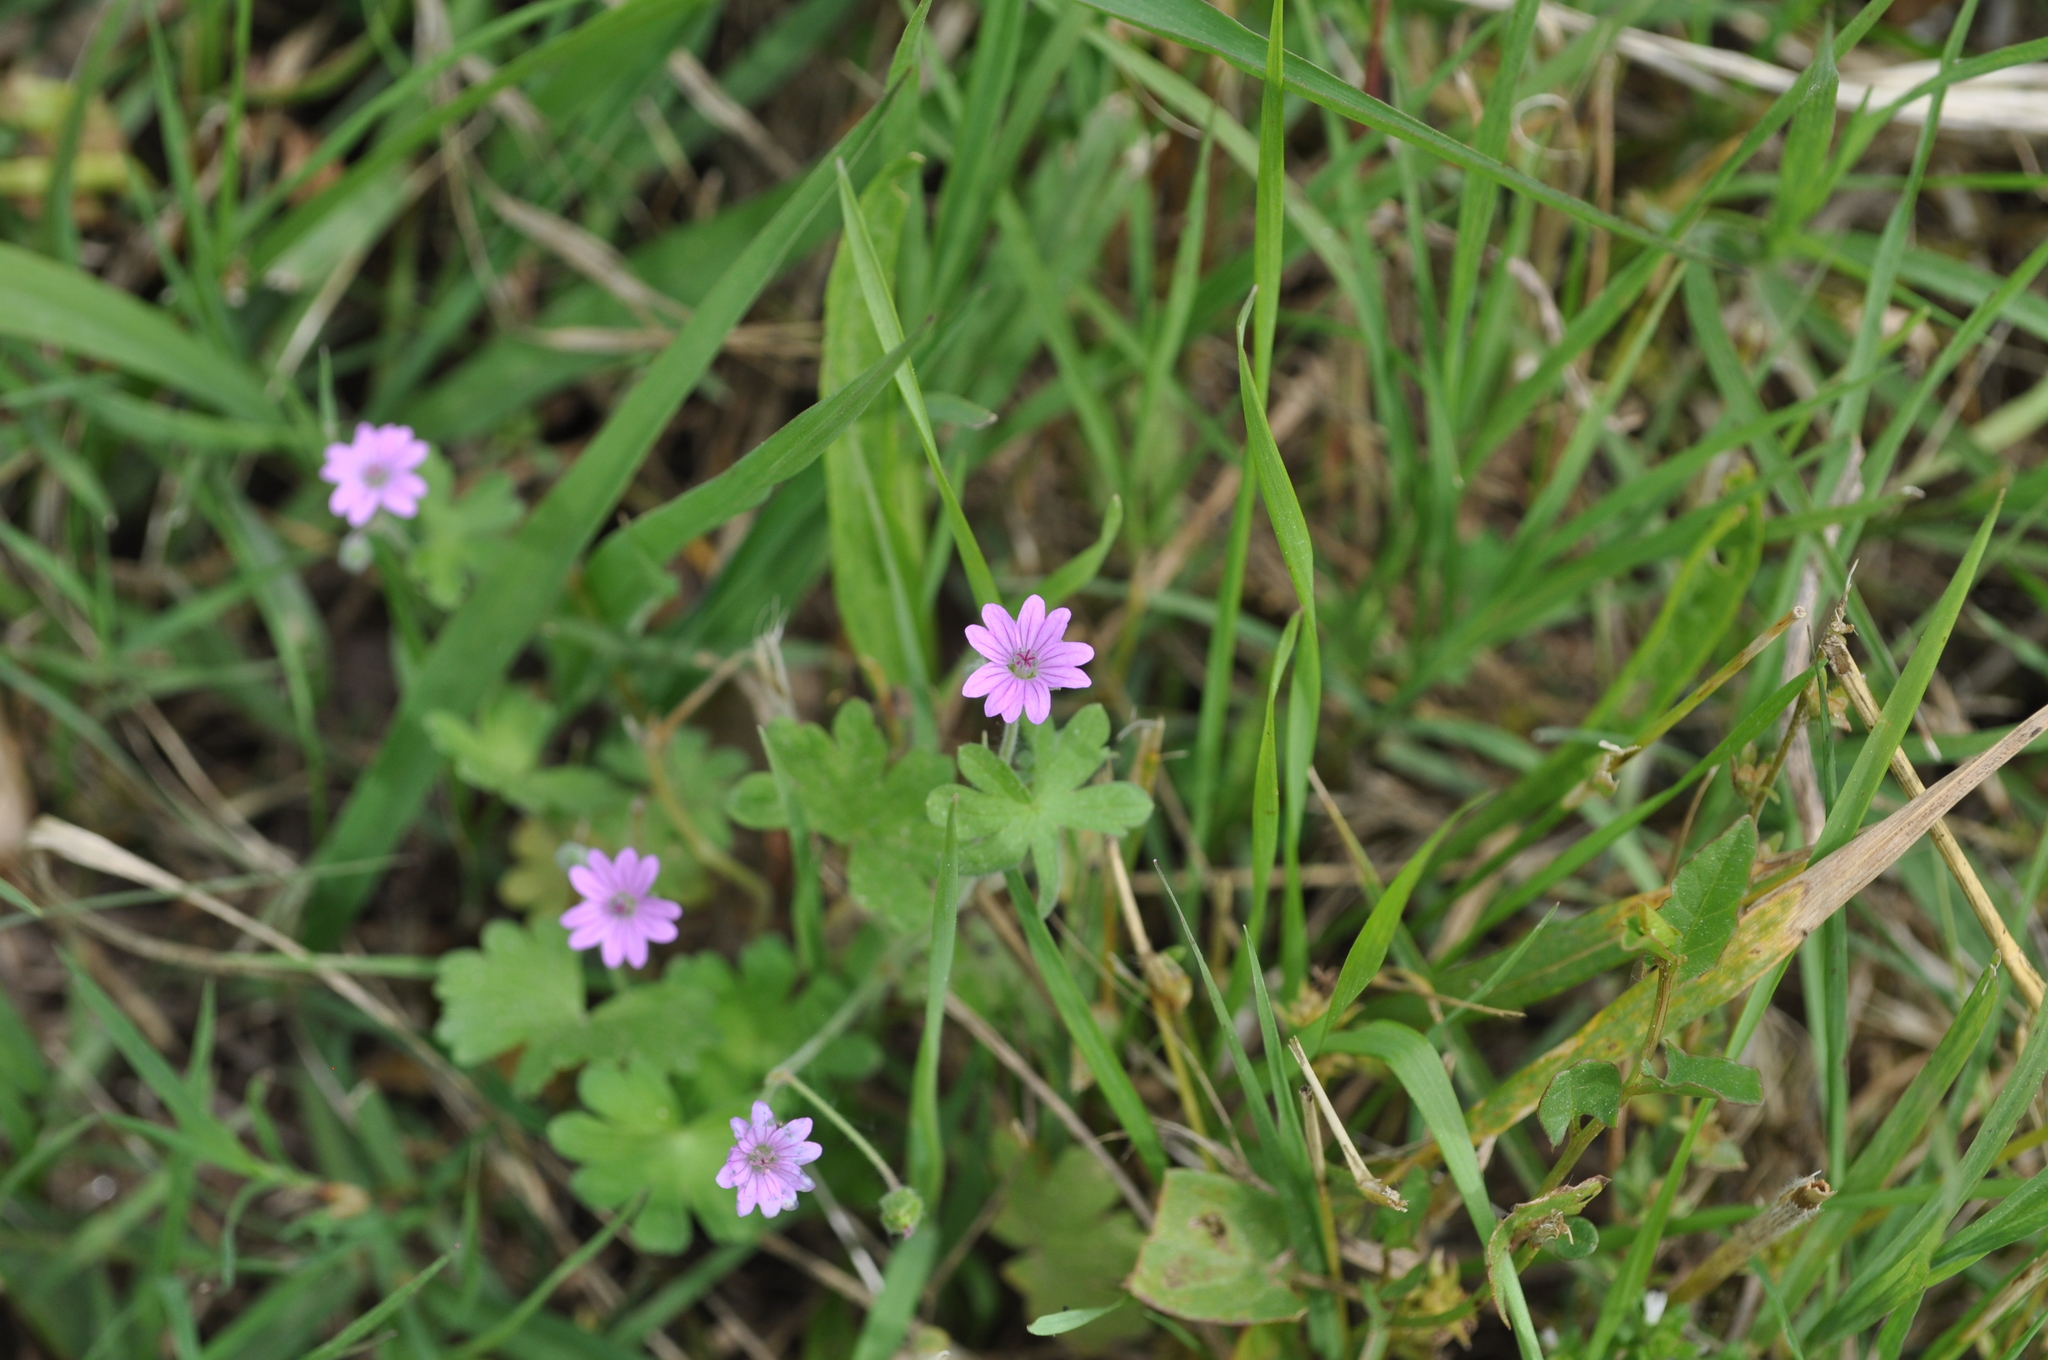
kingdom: Plantae
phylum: Tracheophyta
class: Magnoliopsida
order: Geraniales
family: Geraniaceae
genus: Geranium
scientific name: Geranium molle
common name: Dove's-foot crane's-bill
